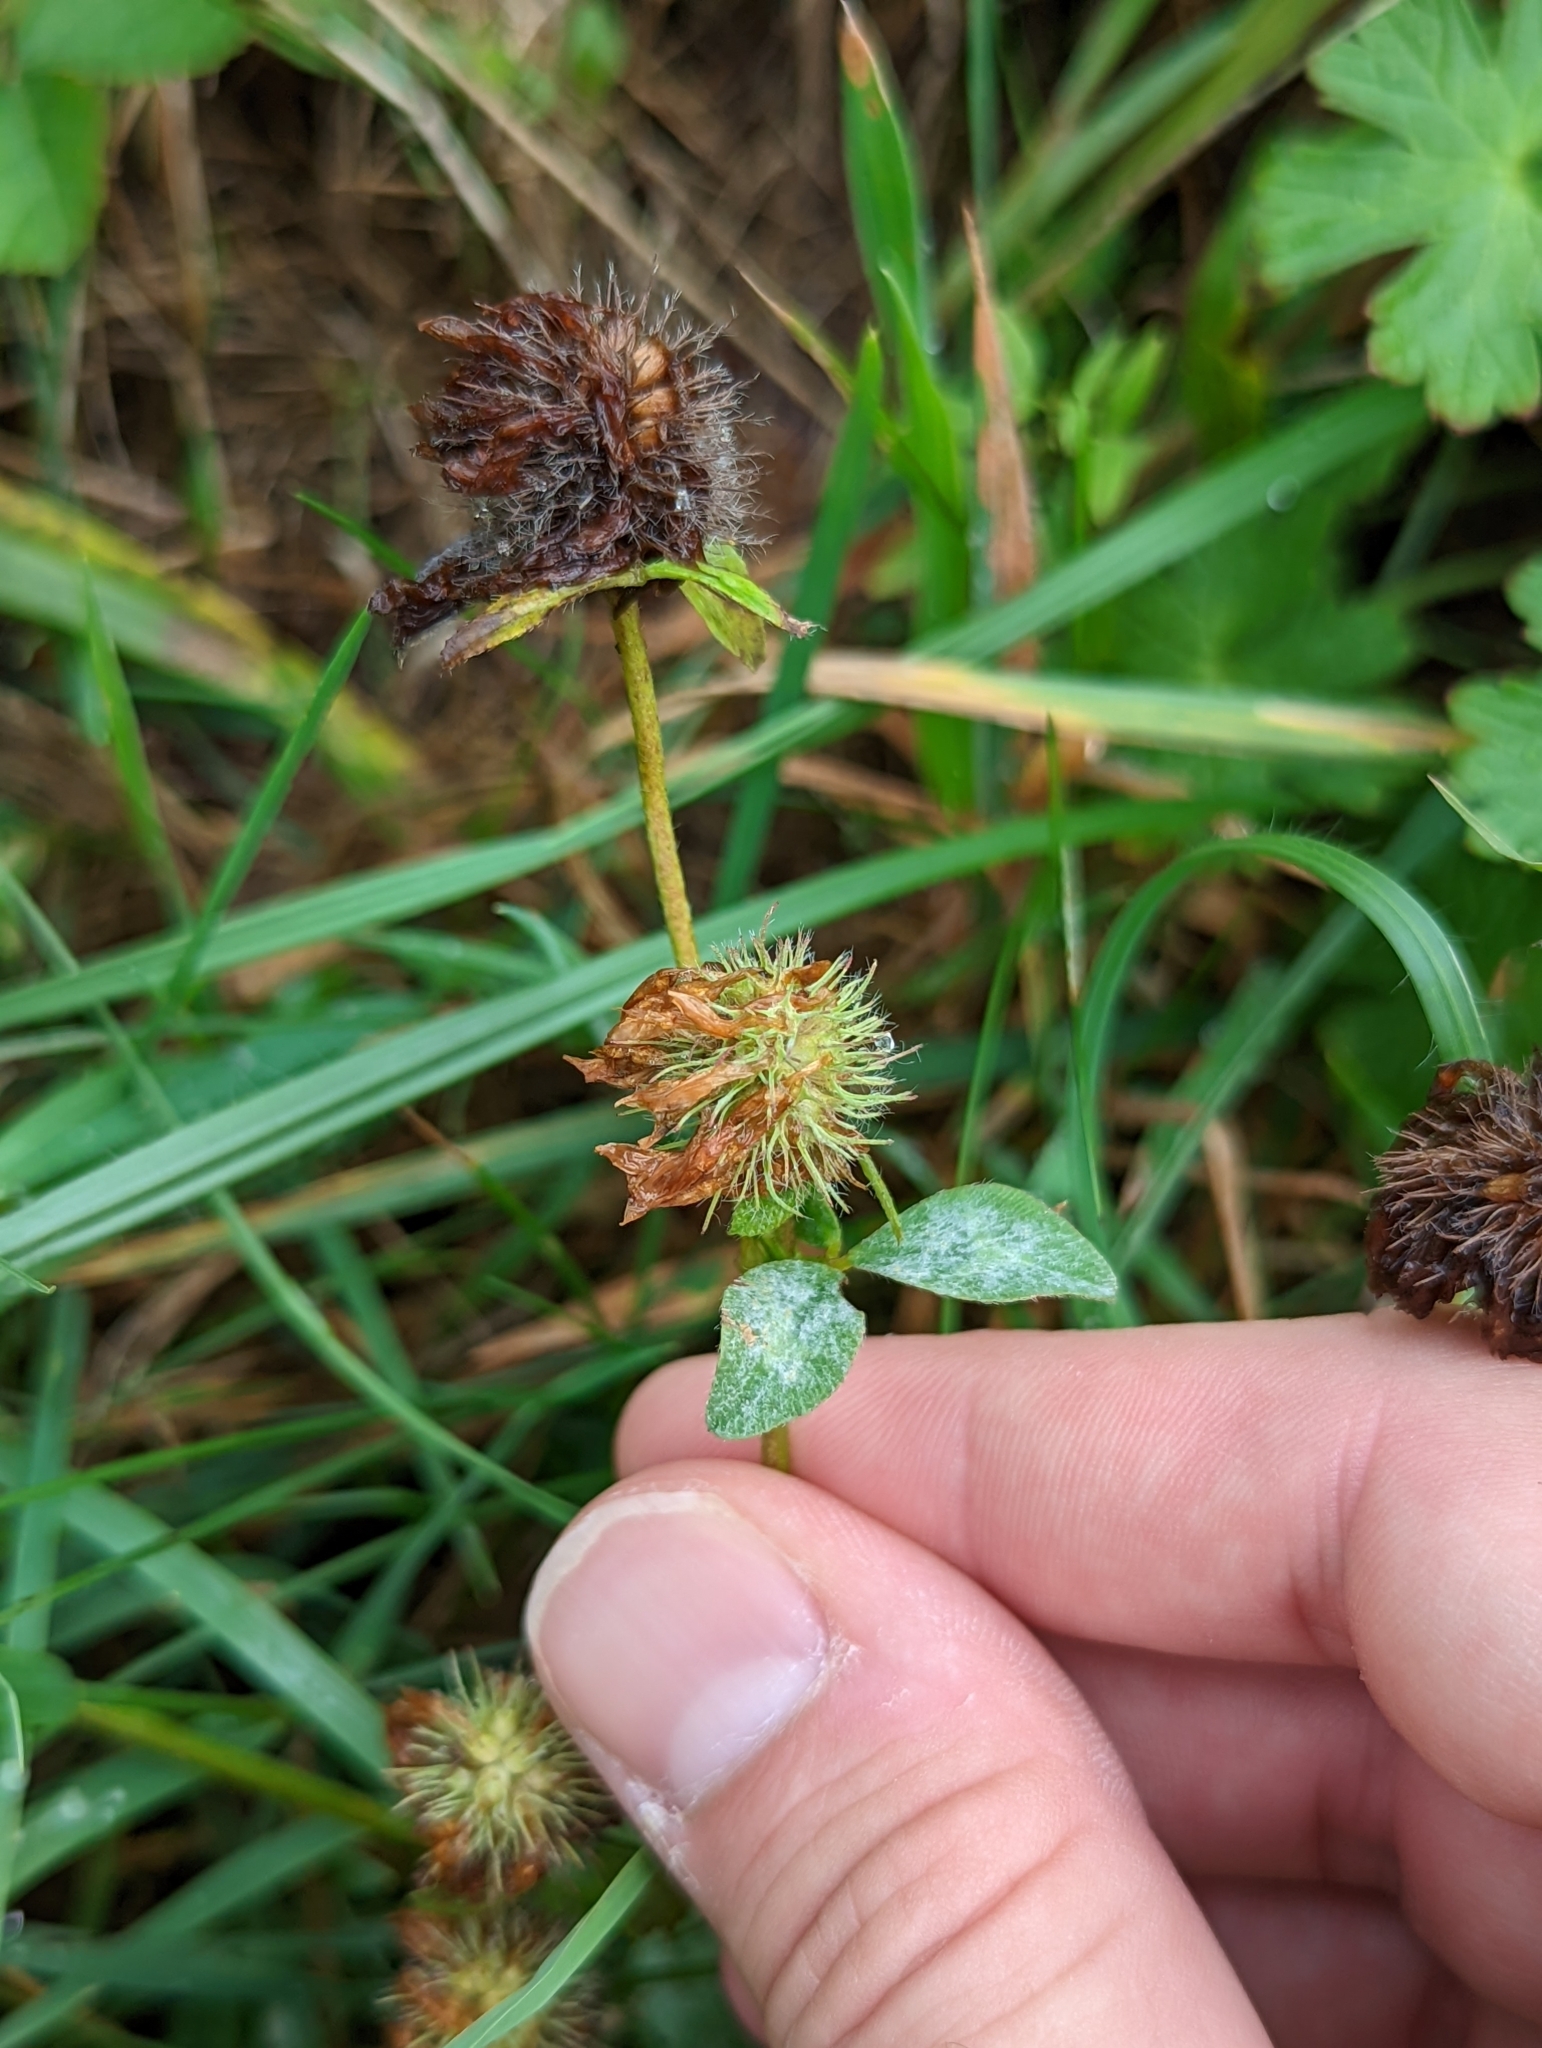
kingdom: Plantae
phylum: Tracheophyta
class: Magnoliopsida
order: Fabales
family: Fabaceae
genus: Trifolium
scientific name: Trifolium pratense
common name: Red clover
